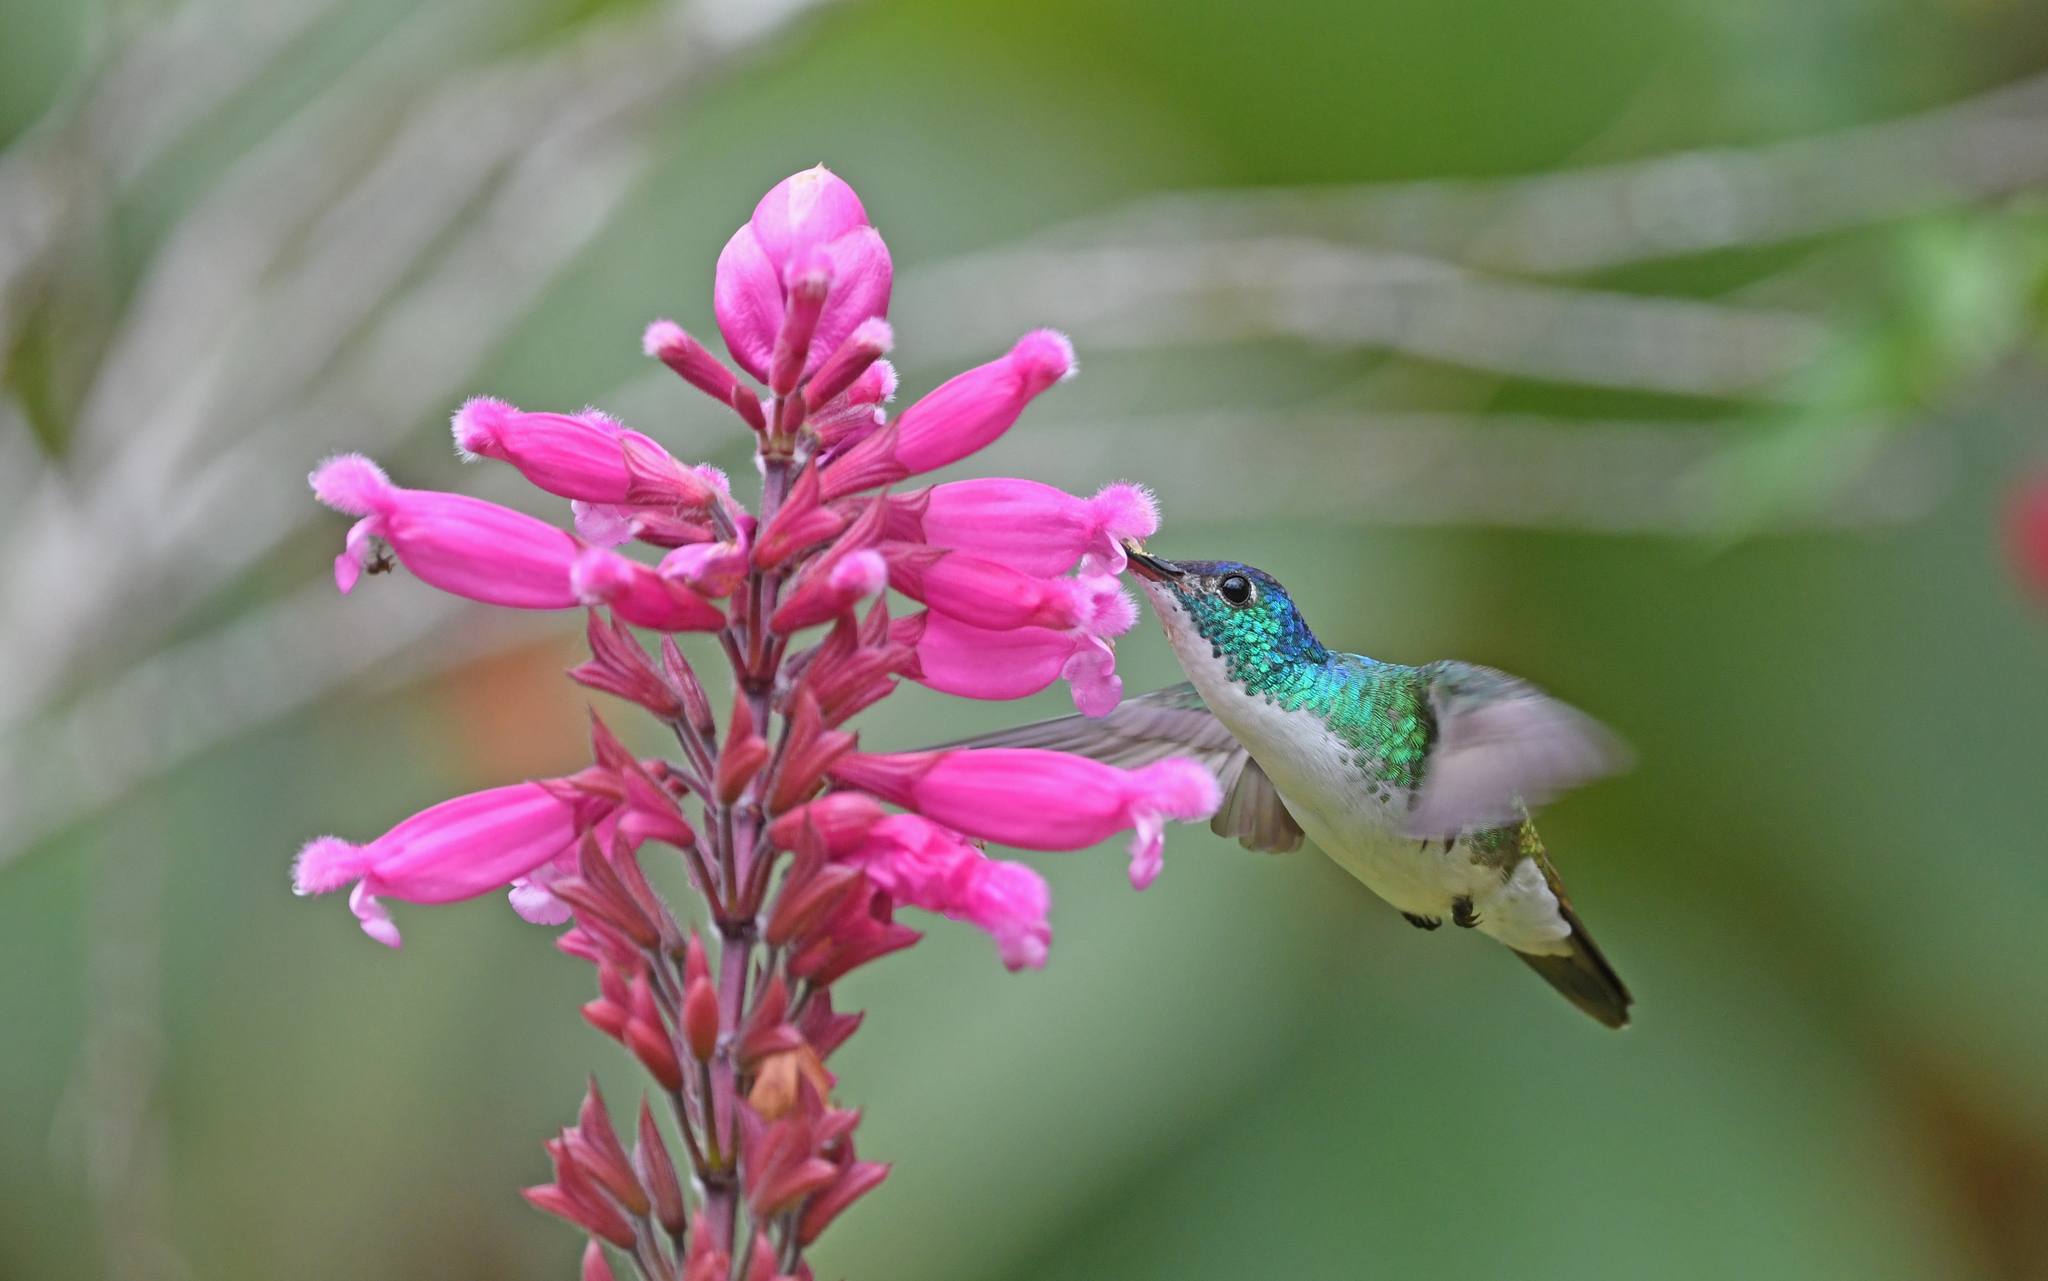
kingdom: Animalia
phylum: Chordata
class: Aves
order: Apodiformes
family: Trochilidae
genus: Uranomitra
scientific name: Uranomitra franciae
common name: Andean emerald
